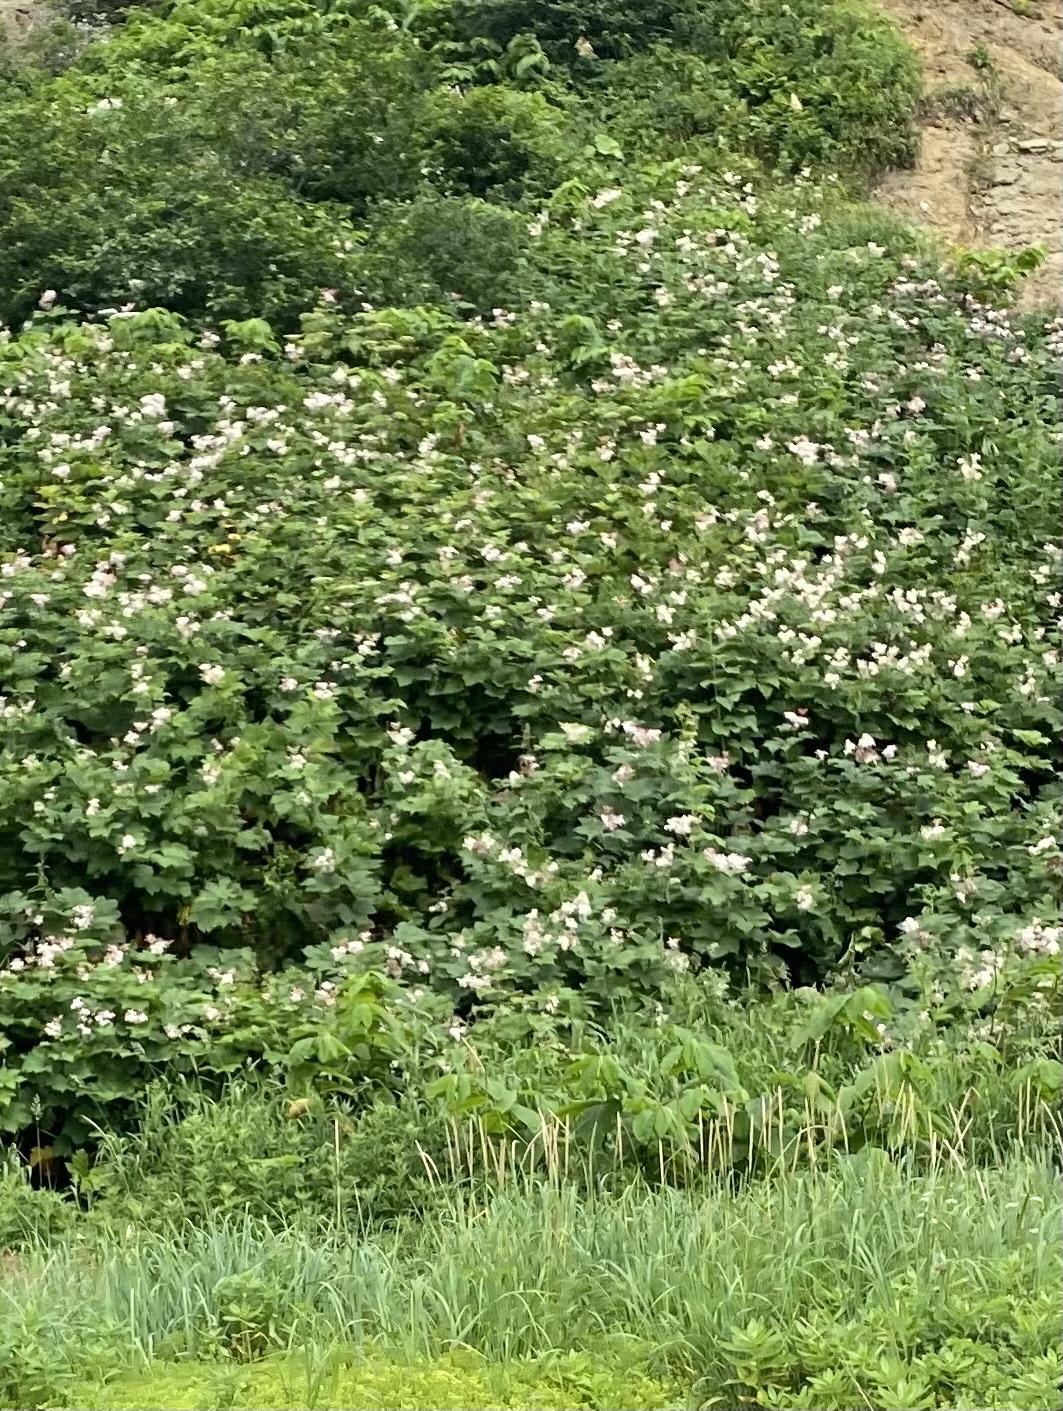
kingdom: Plantae
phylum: Tracheophyta
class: Magnoliopsida
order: Rosales
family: Rosaceae
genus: Filipendula
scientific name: Filipendula camtschatica
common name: Giant meadowsweet
